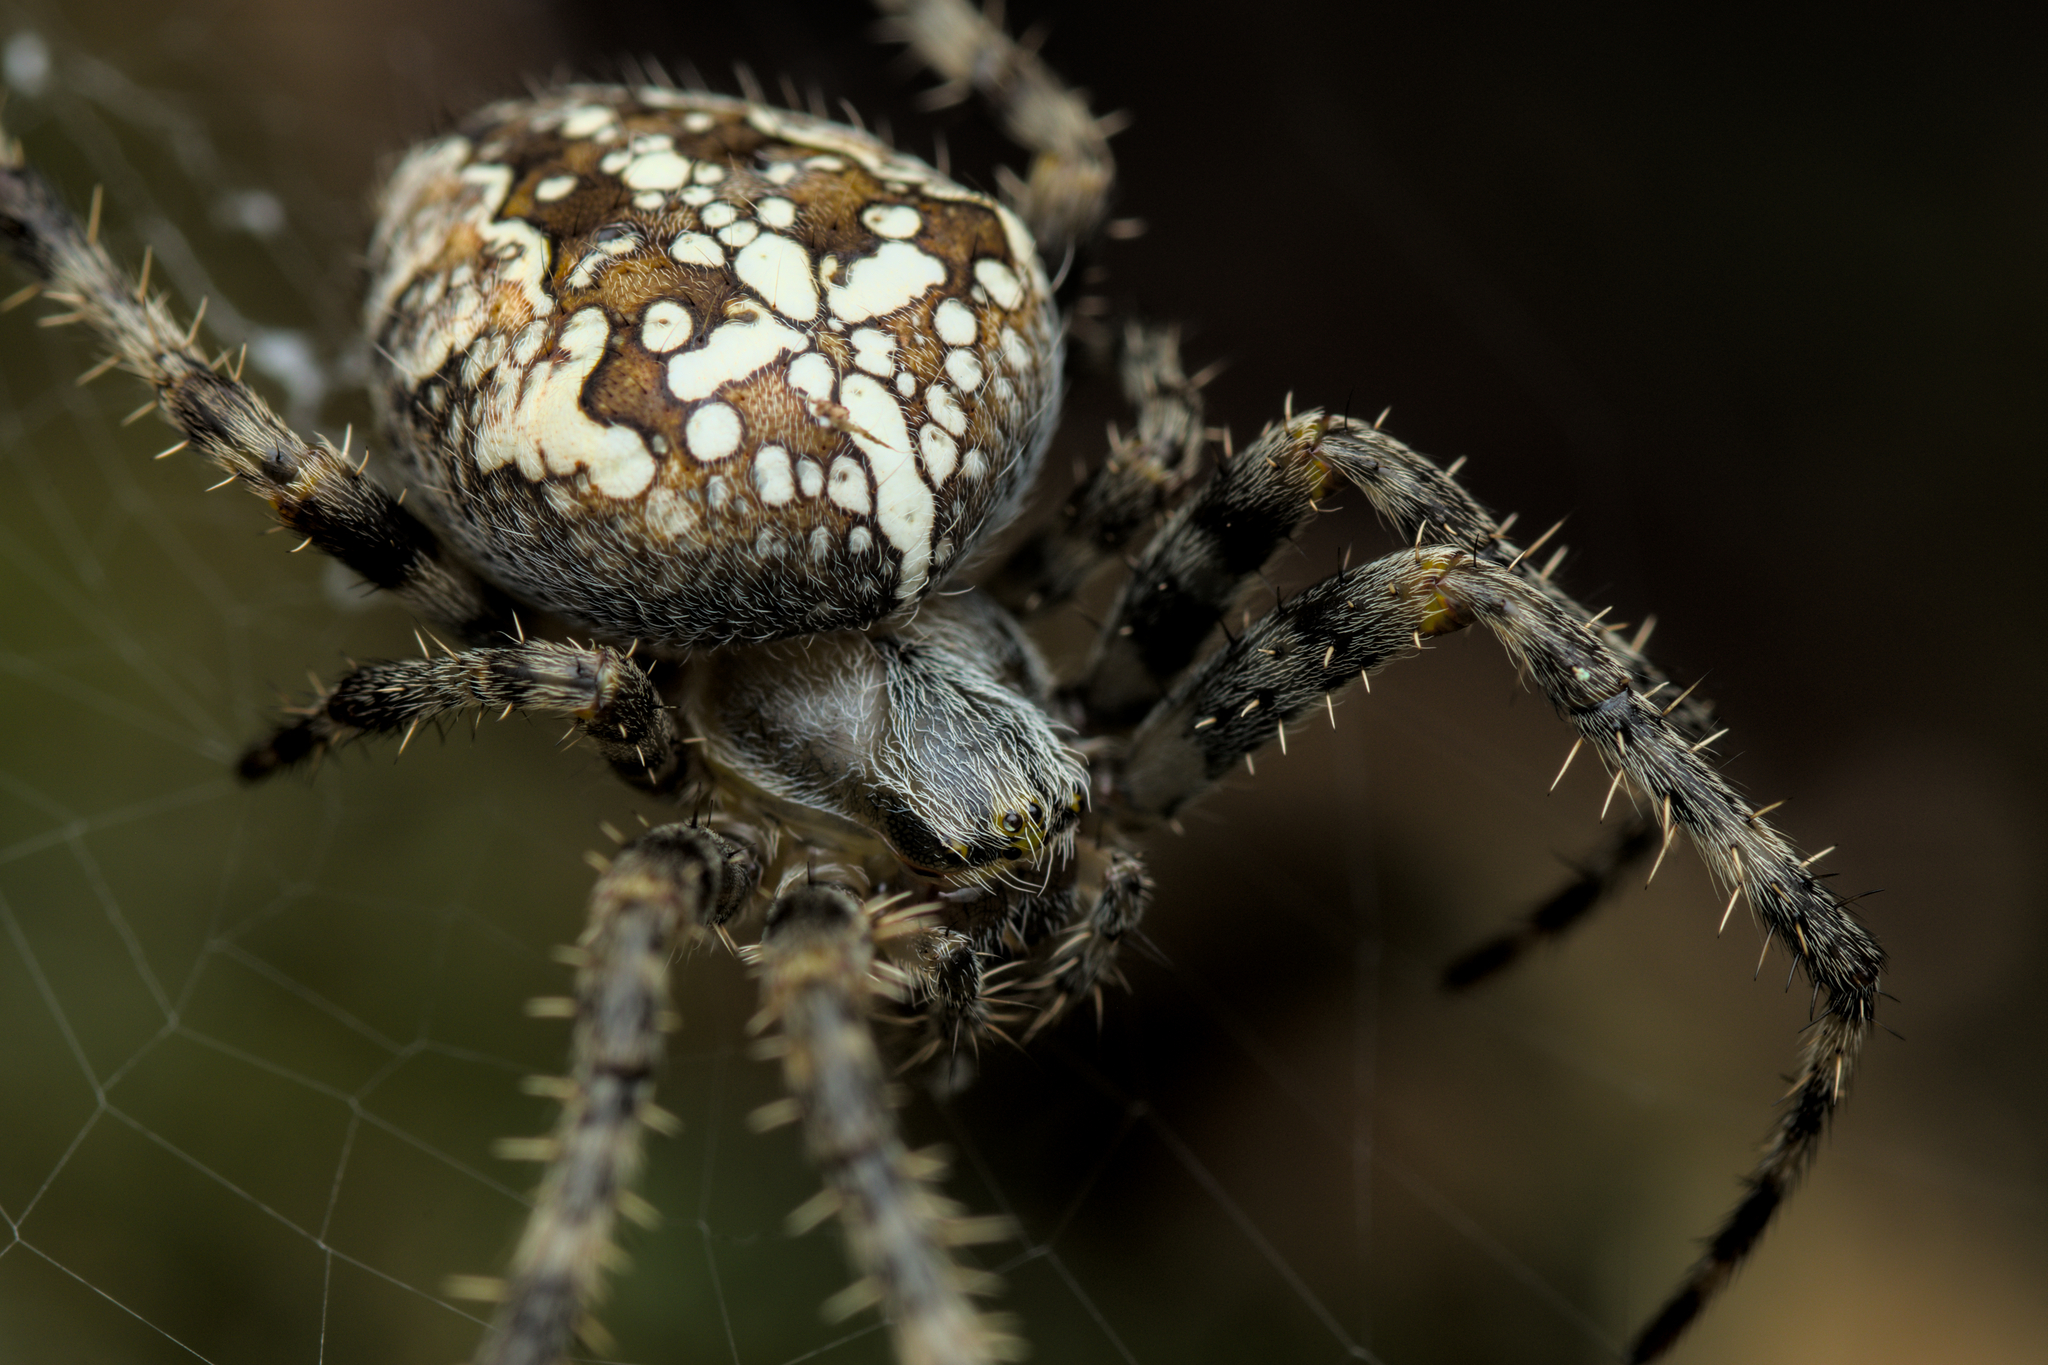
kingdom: Animalia
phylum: Arthropoda
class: Arachnida
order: Araneae
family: Araneidae
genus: Araneus
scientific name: Araneus diadematus
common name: Cross orbweaver
